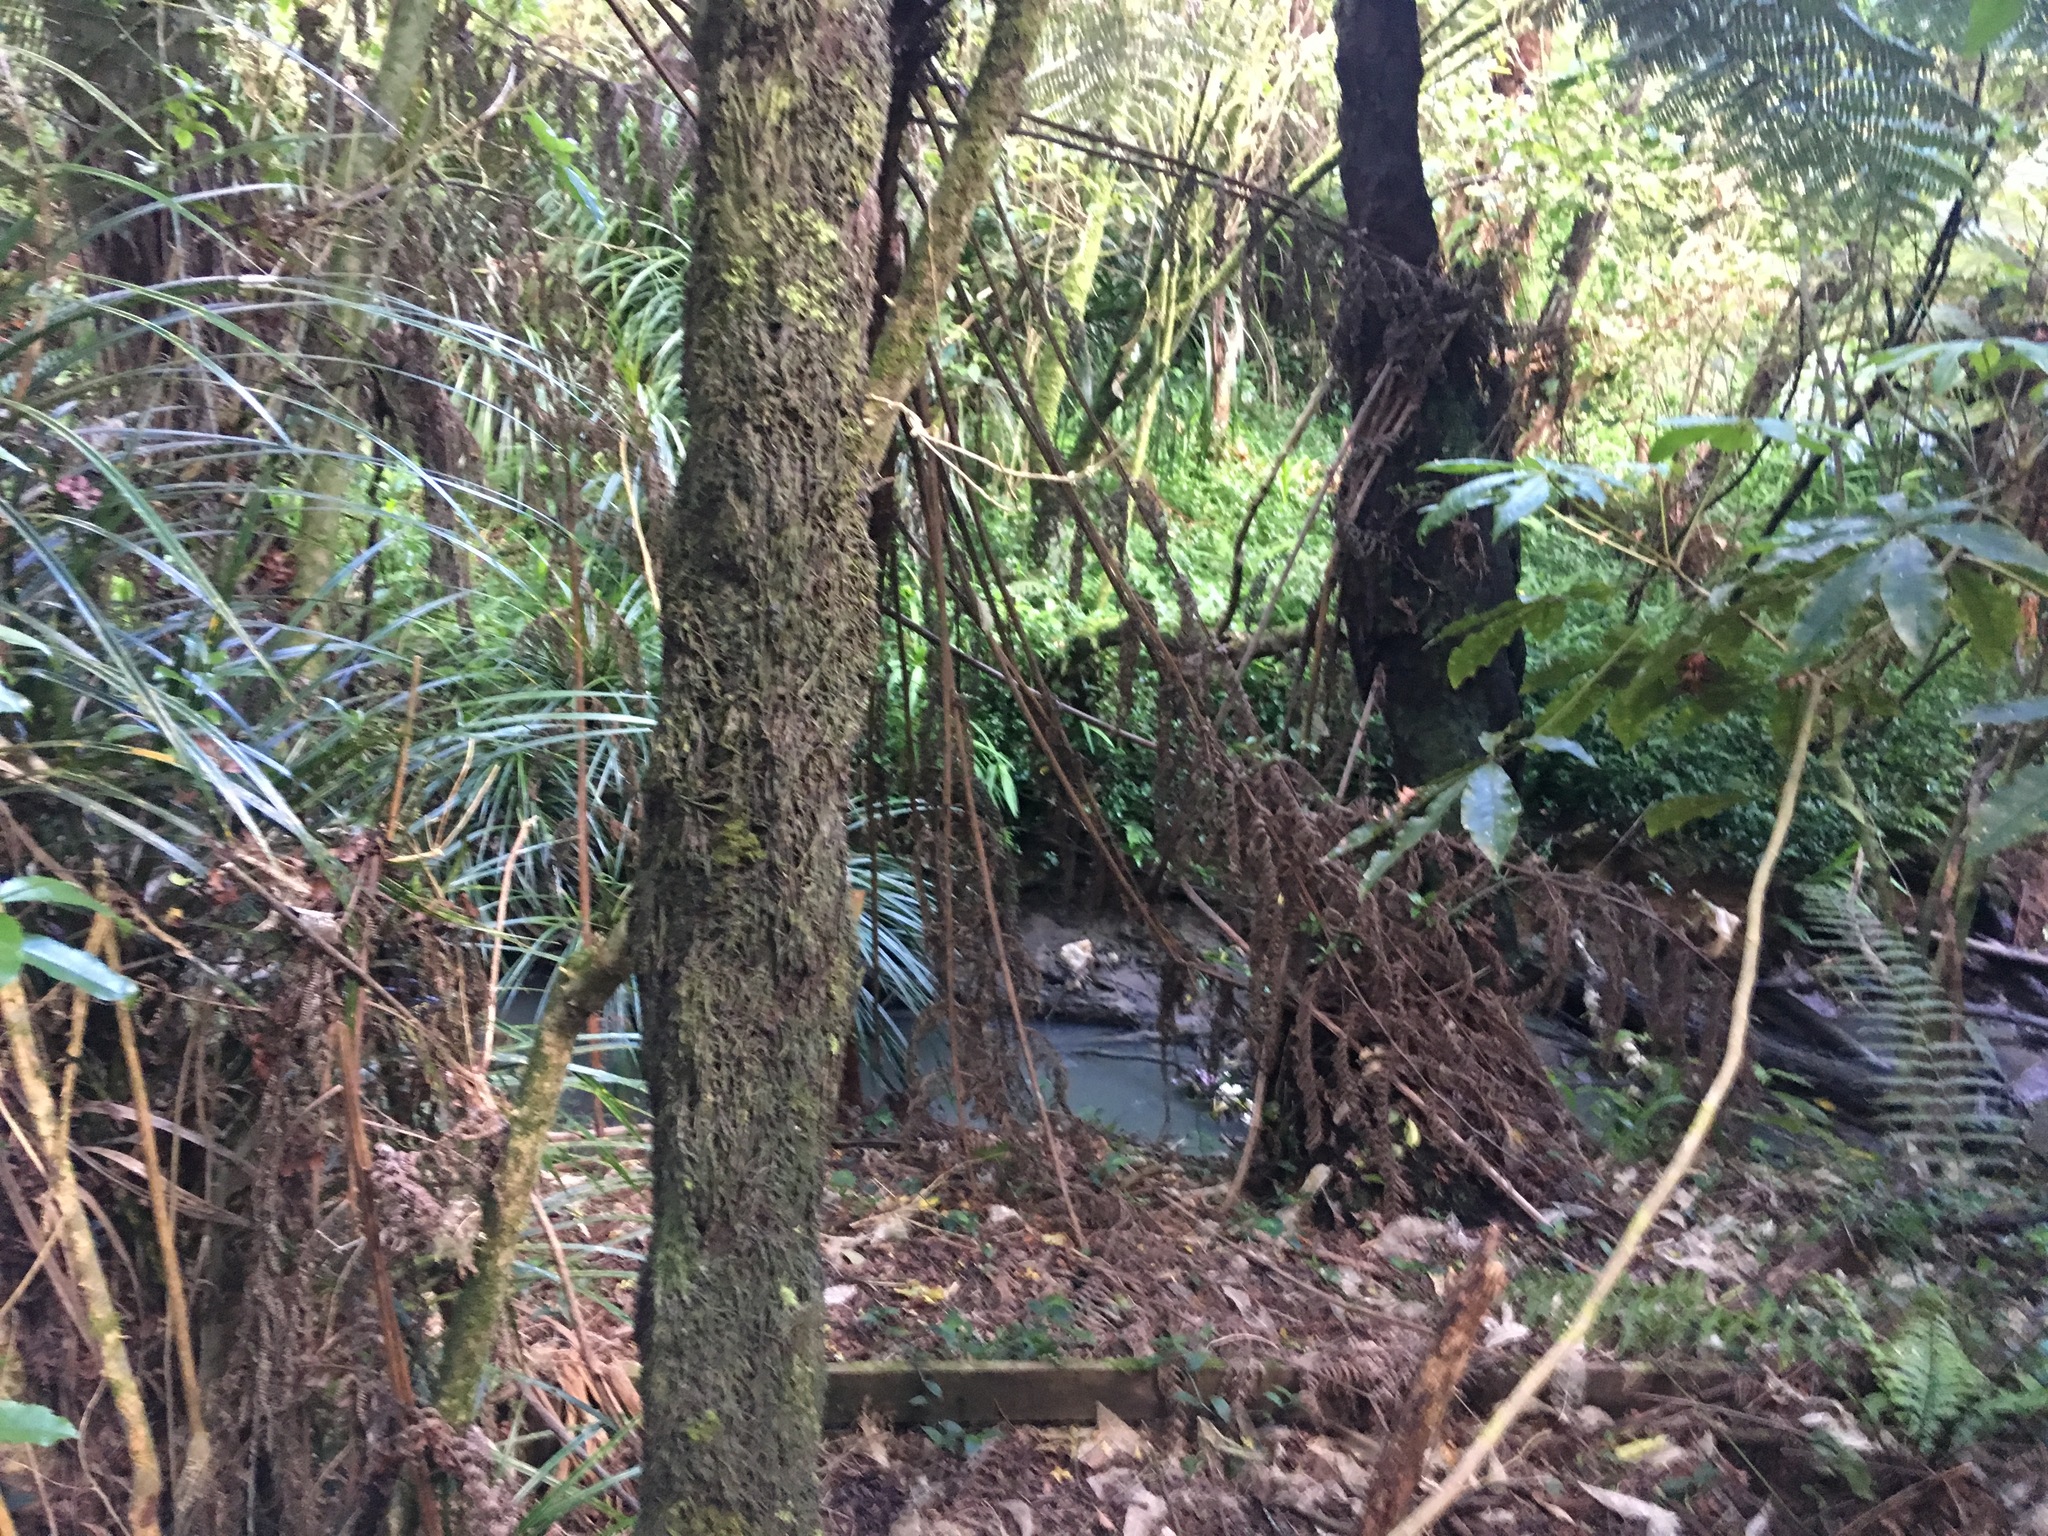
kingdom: Plantae
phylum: Tracheophyta
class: Liliopsida
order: Commelinales
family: Commelinaceae
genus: Tradescantia
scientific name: Tradescantia fluminensis
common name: Wandering-jew
